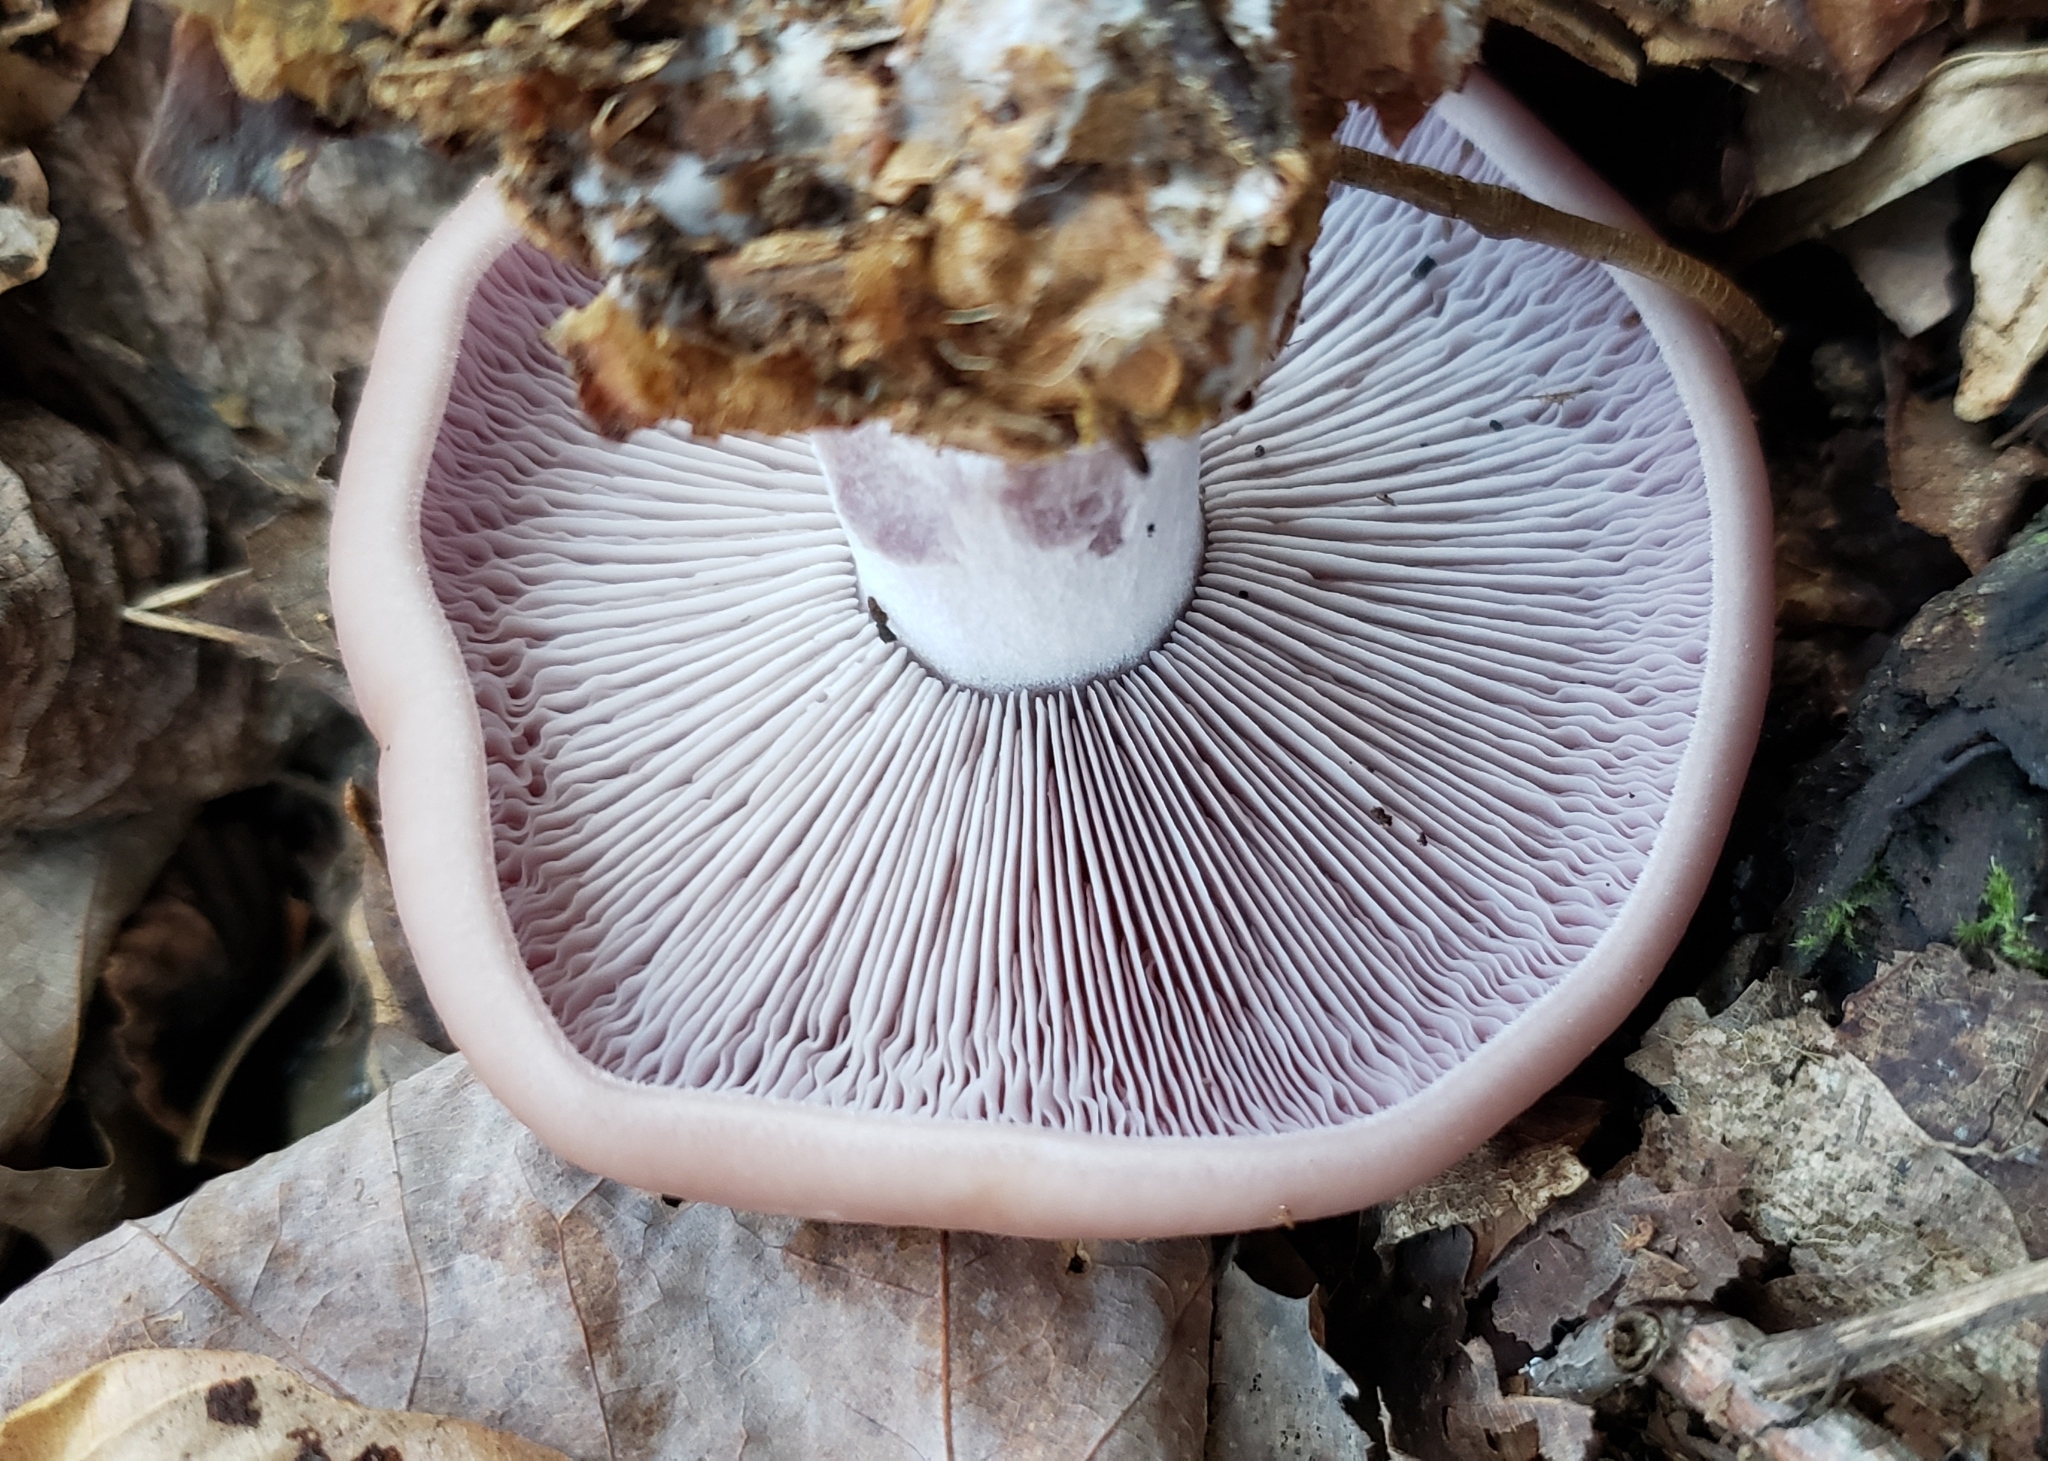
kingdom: Fungi
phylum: Basidiomycota
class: Agaricomycetes
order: Agaricales
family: Tricholomataceae
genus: Collybia
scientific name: Collybia
